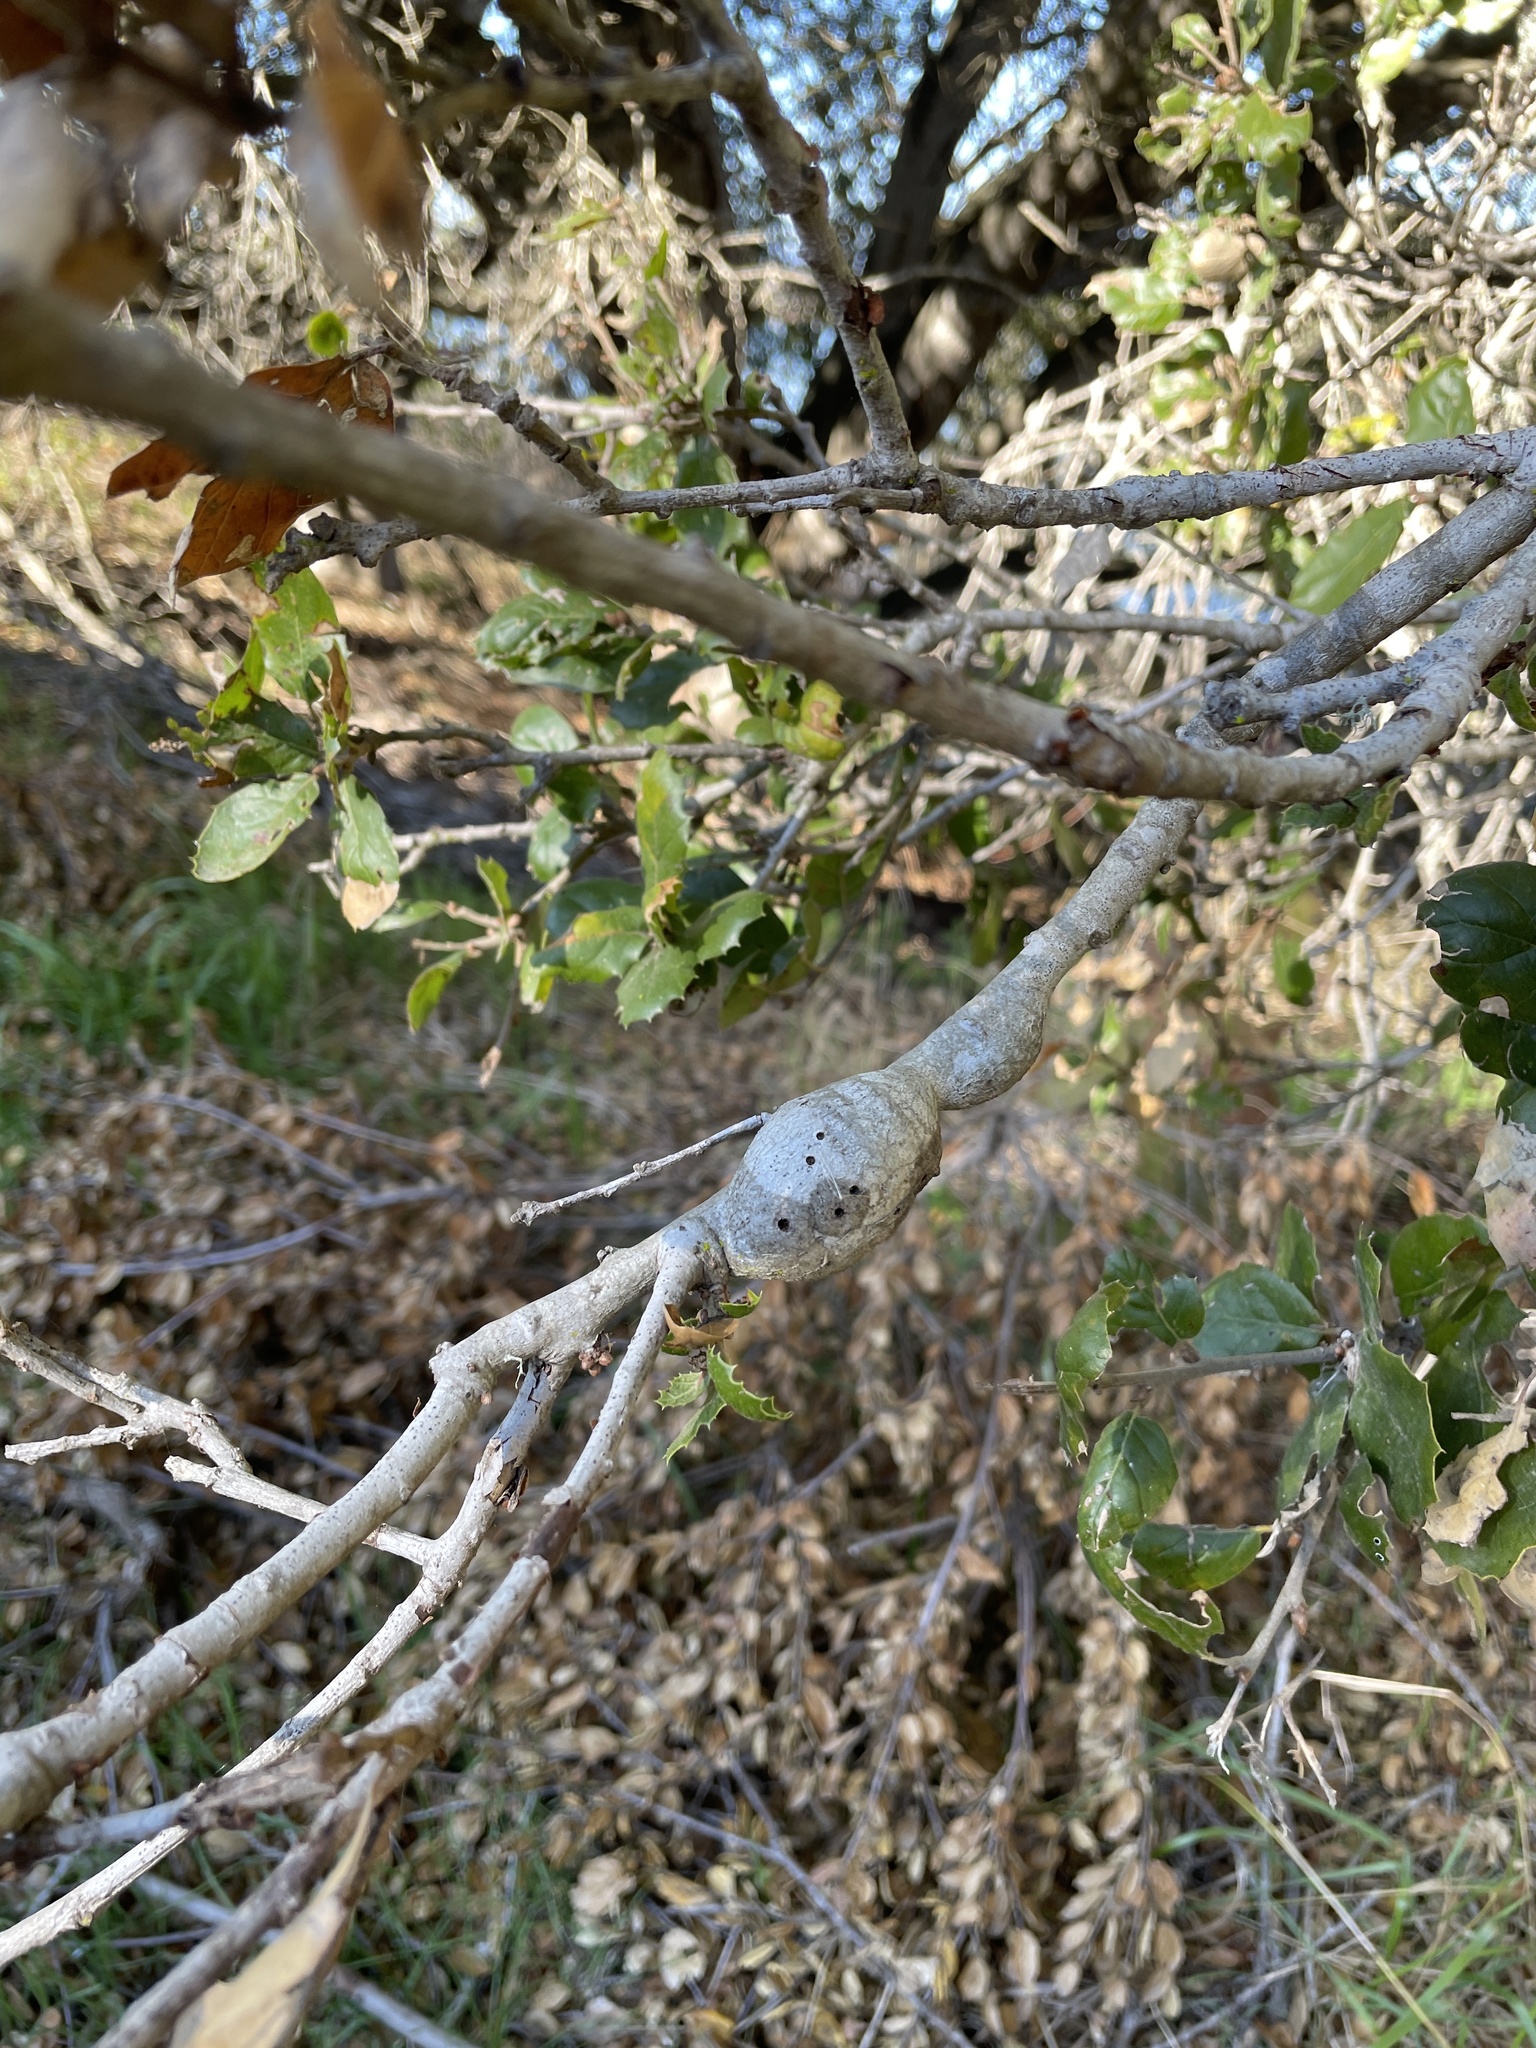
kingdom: Animalia
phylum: Arthropoda
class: Insecta
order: Hymenoptera
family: Cynipidae
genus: Callirhytis
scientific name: Callirhytis
